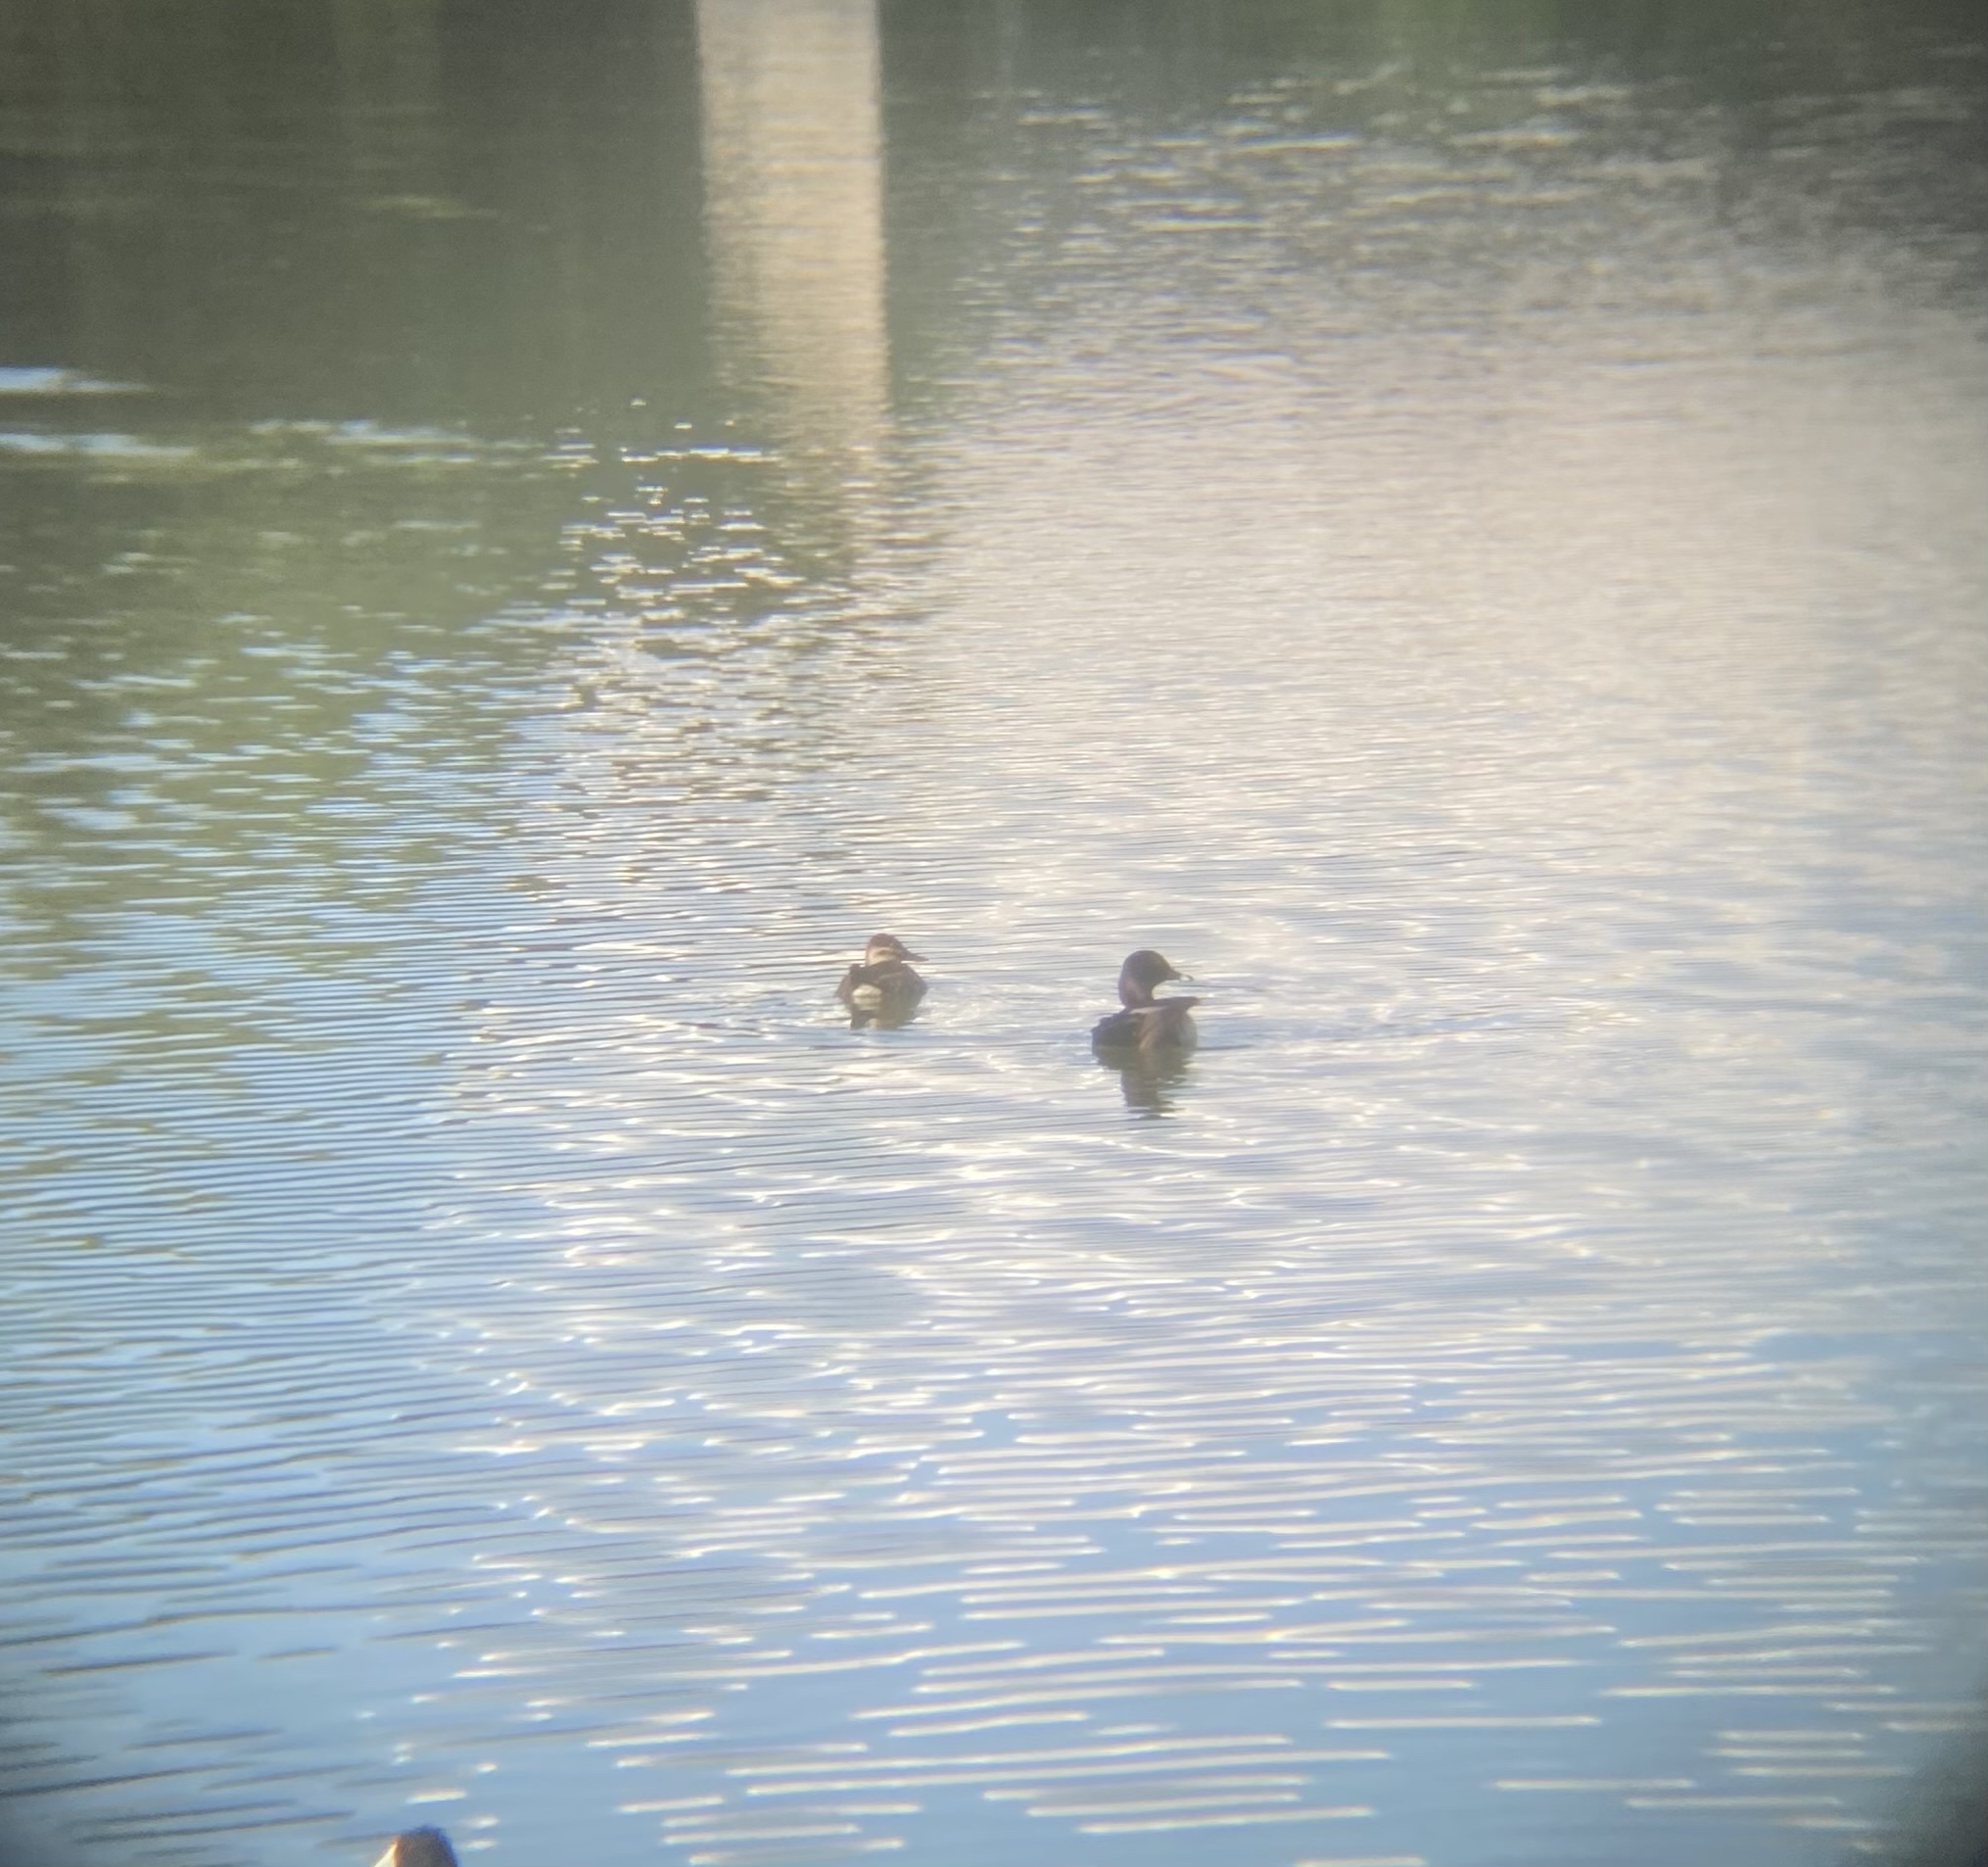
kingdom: Animalia
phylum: Chordata
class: Aves
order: Anseriformes
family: Anatidae
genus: Aythya
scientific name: Aythya collaris
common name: Ring-necked duck
